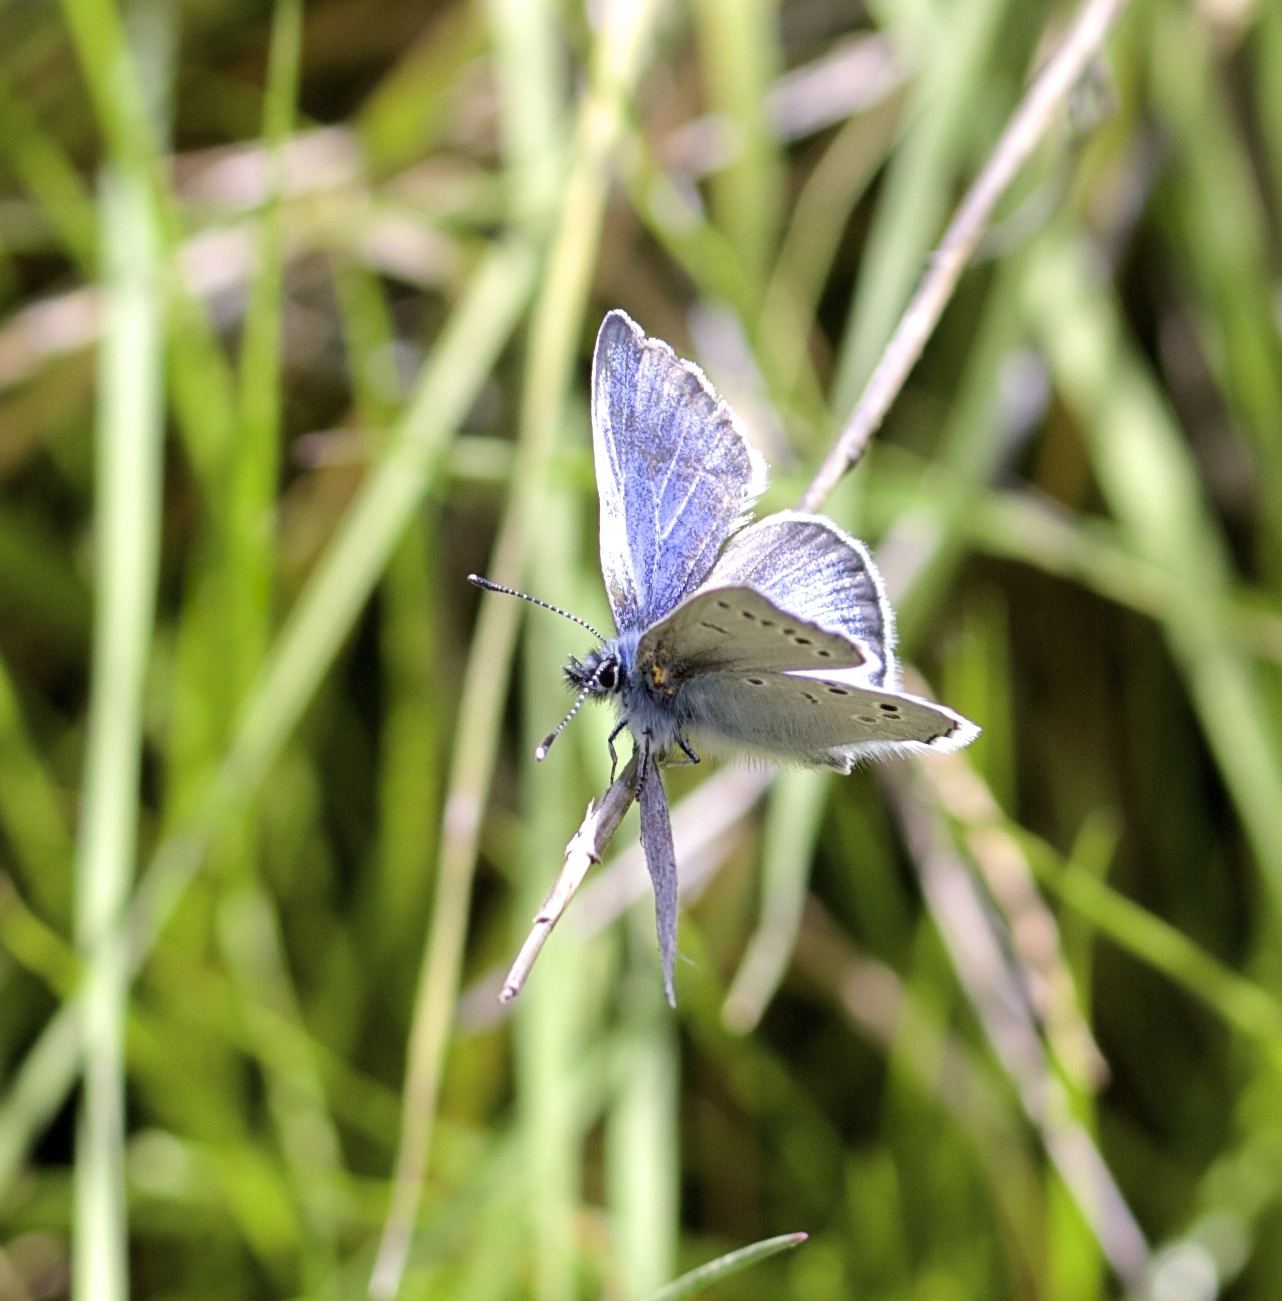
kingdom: Animalia
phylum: Arthropoda
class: Insecta
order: Lepidoptera
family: Lycaenidae
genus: Glaucopsyche
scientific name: Glaucopsyche lygdamus
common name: Silvery blue
